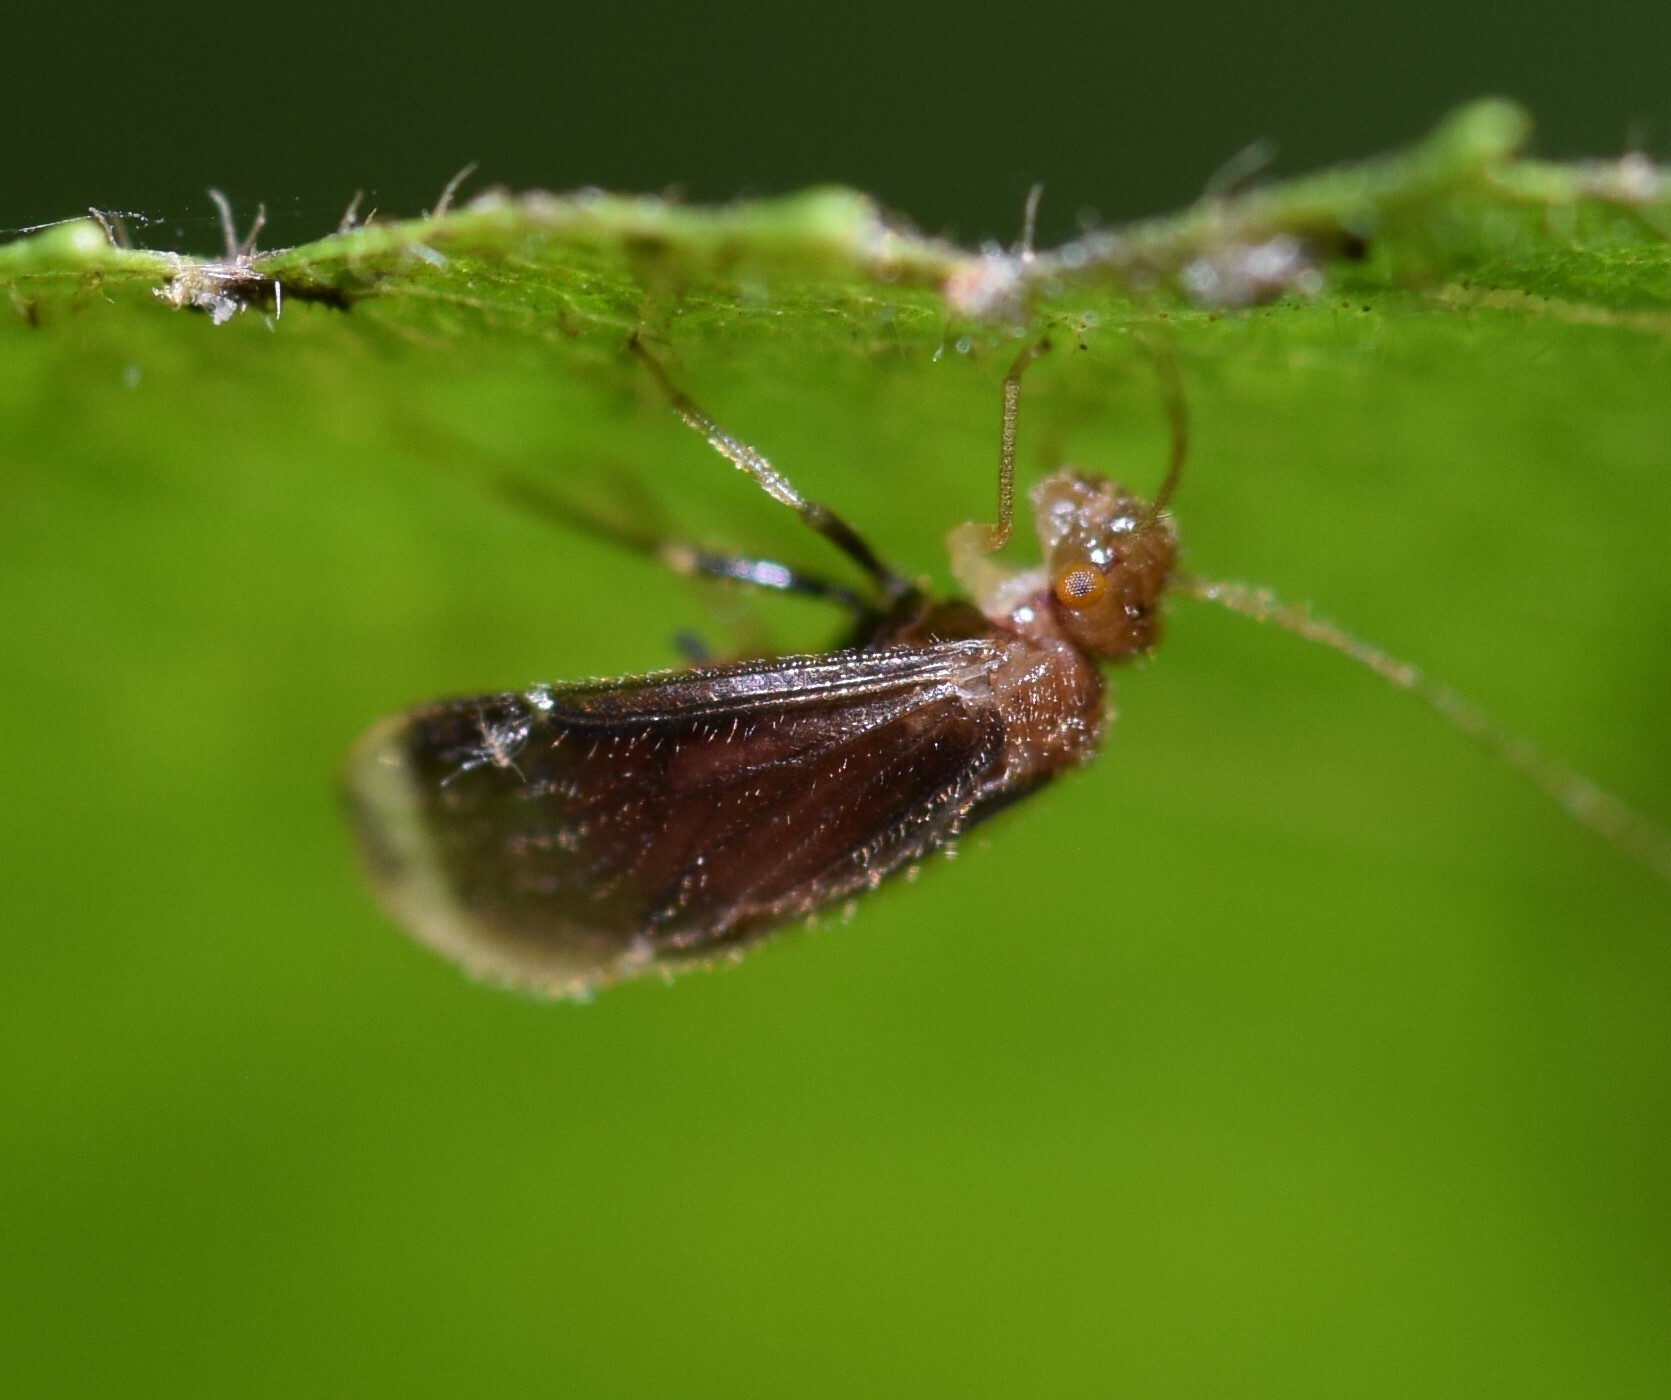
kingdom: Animalia
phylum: Arthropoda
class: Insecta
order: Psocodea
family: Amphipsocidae
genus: Polypsocus
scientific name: Polypsocus corruptus
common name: Corrupt barklouse
